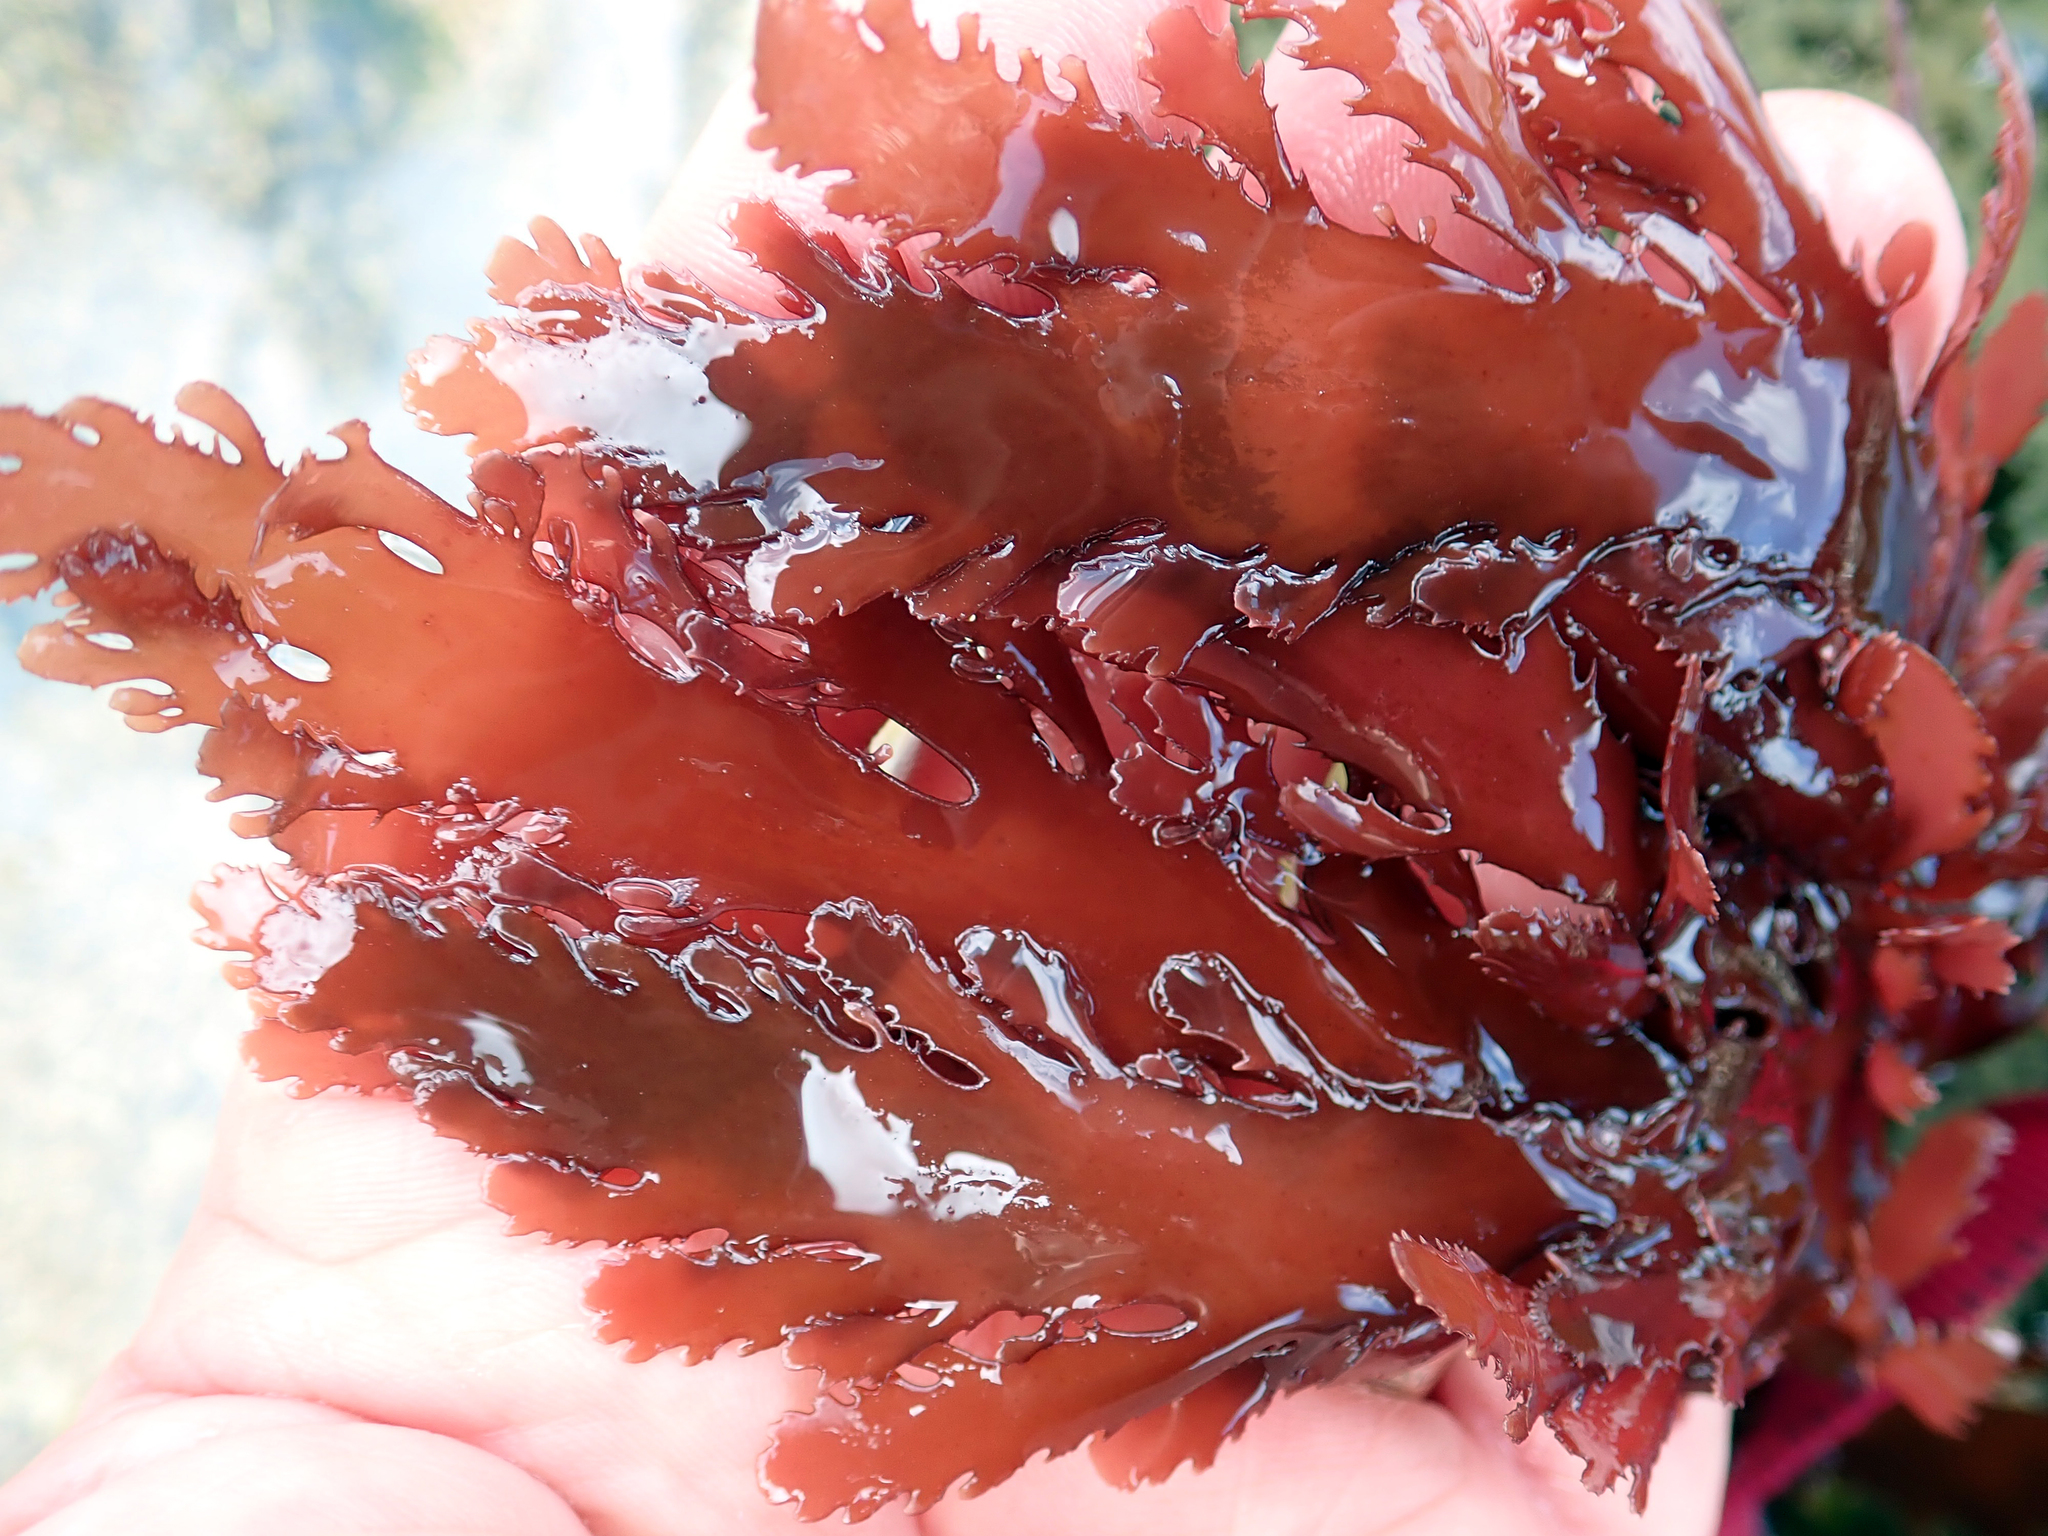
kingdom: Plantae
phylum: Rhodophyta
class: Florideophyceae
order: Gigartinales
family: Solieriaceae
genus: Placentophora
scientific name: Placentophora colensoi
